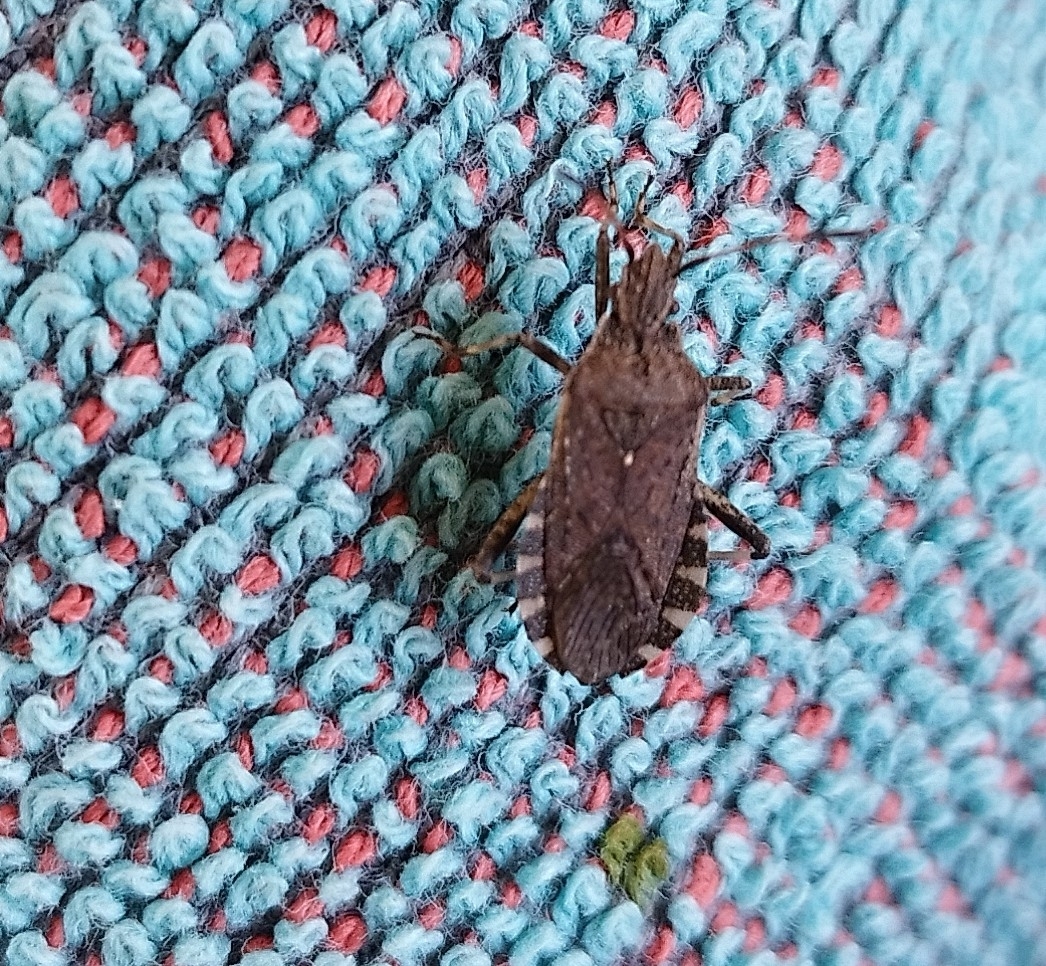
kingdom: Animalia
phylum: Arthropoda
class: Insecta
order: Hemiptera
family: Coreidae
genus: Ceraleptus
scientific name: Ceraleptus gracilicornis
